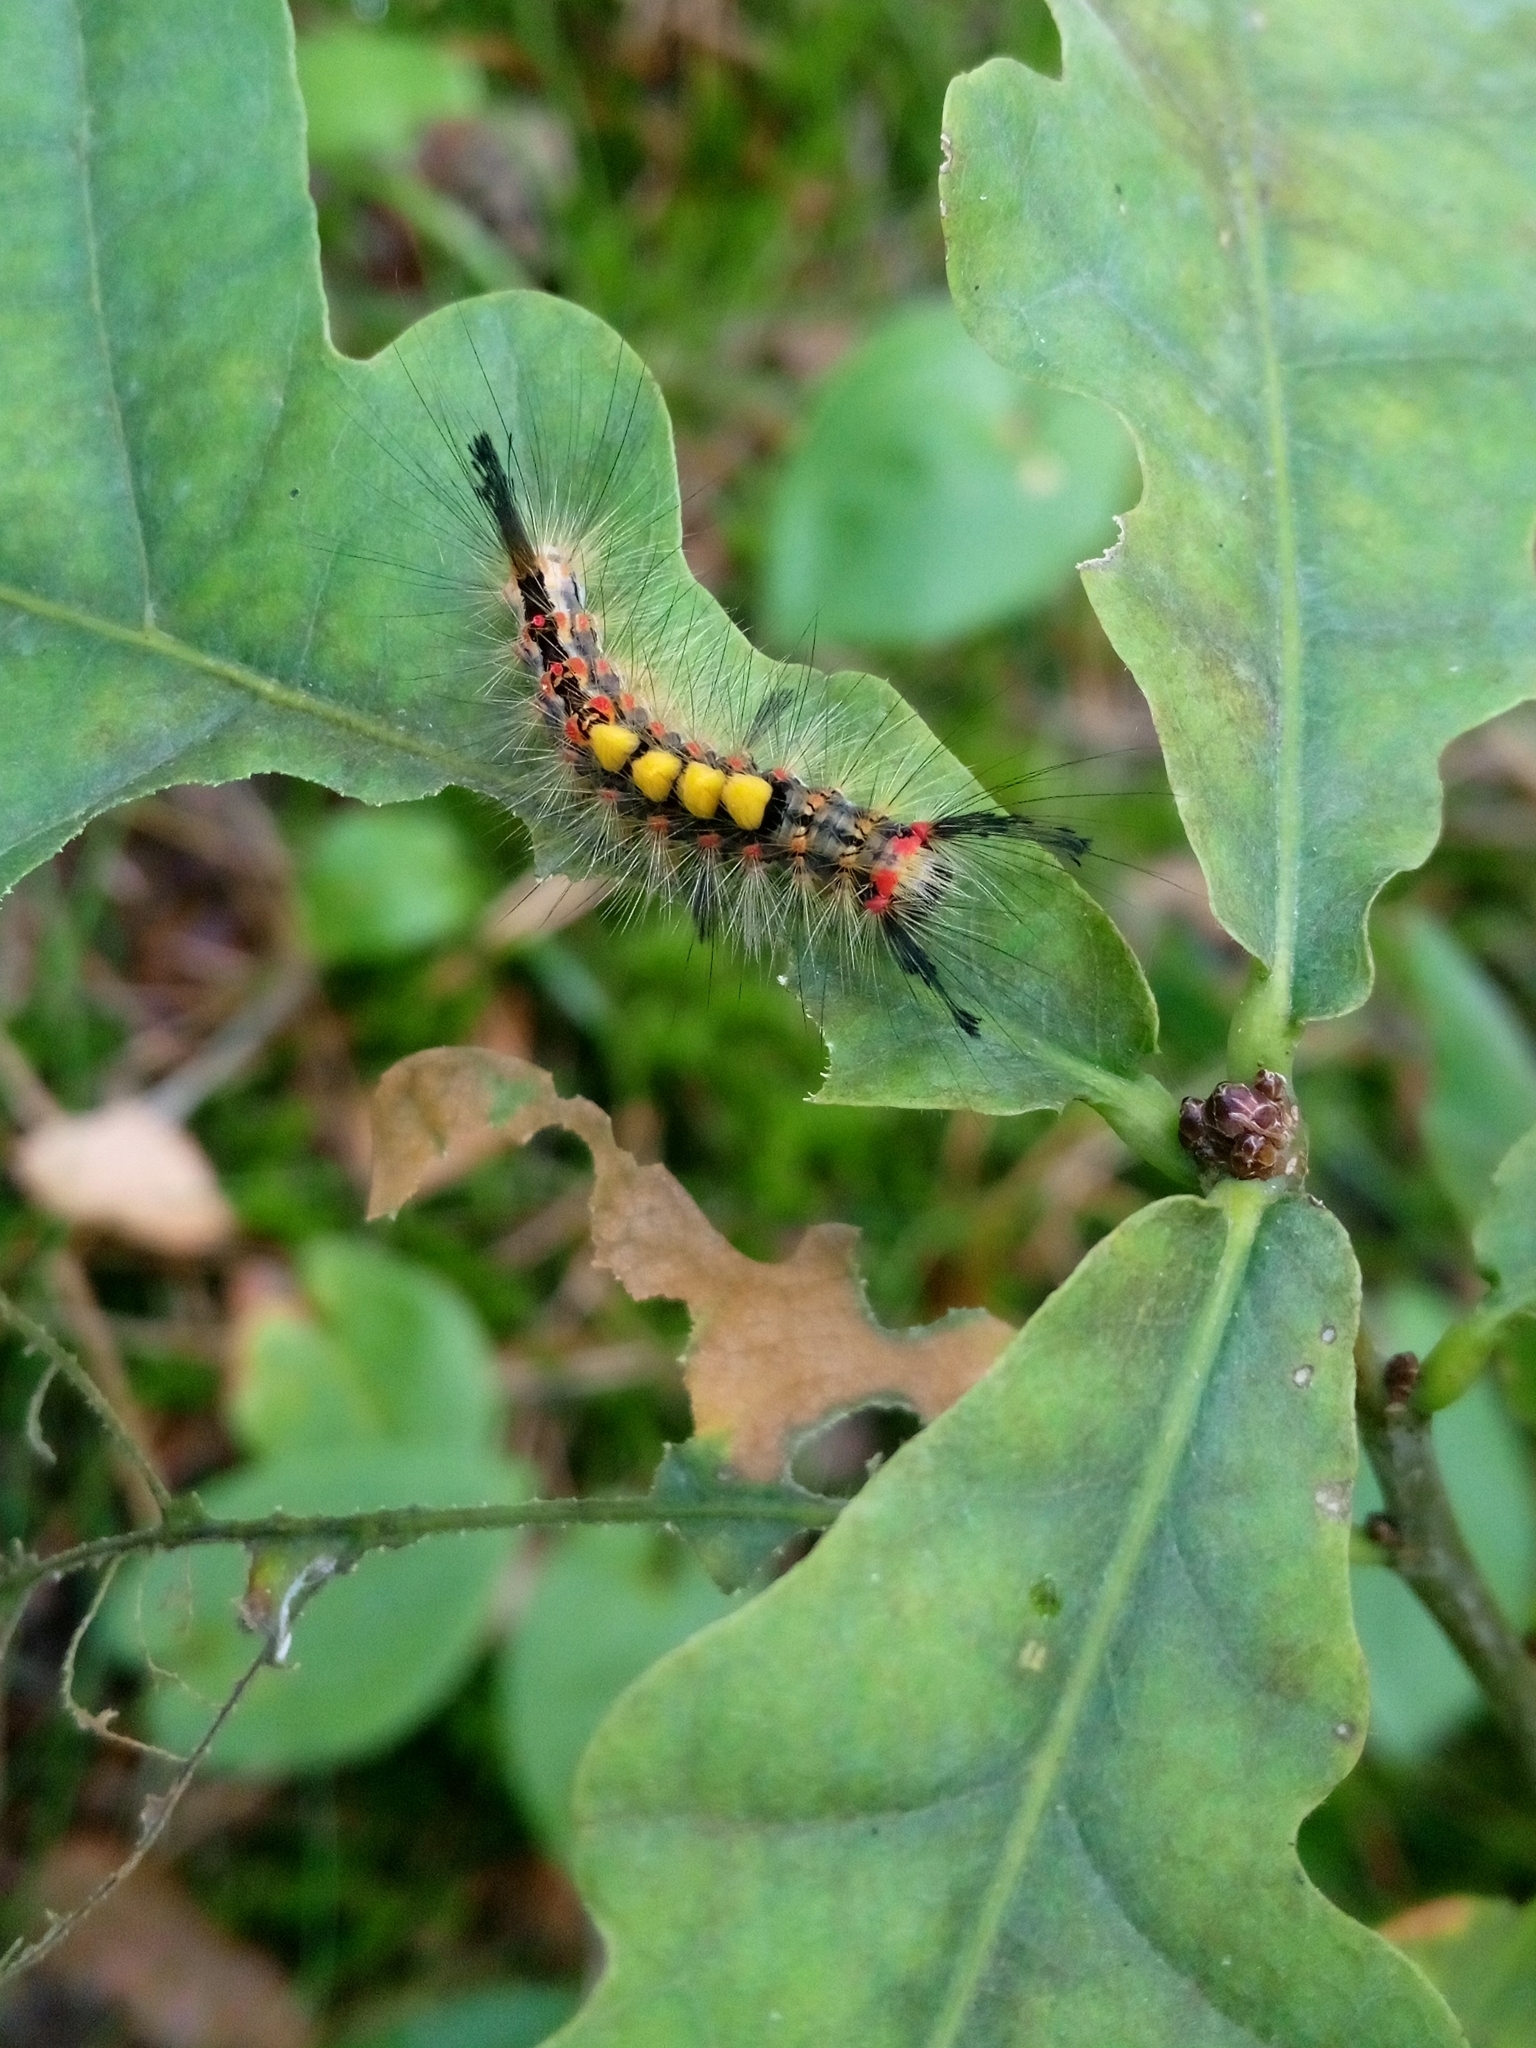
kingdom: Animalia
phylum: Arthropoda
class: Insecta
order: Lepidoptera
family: Erebidae
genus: Orgyia
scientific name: Orgyia antiqua
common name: Vapourer
